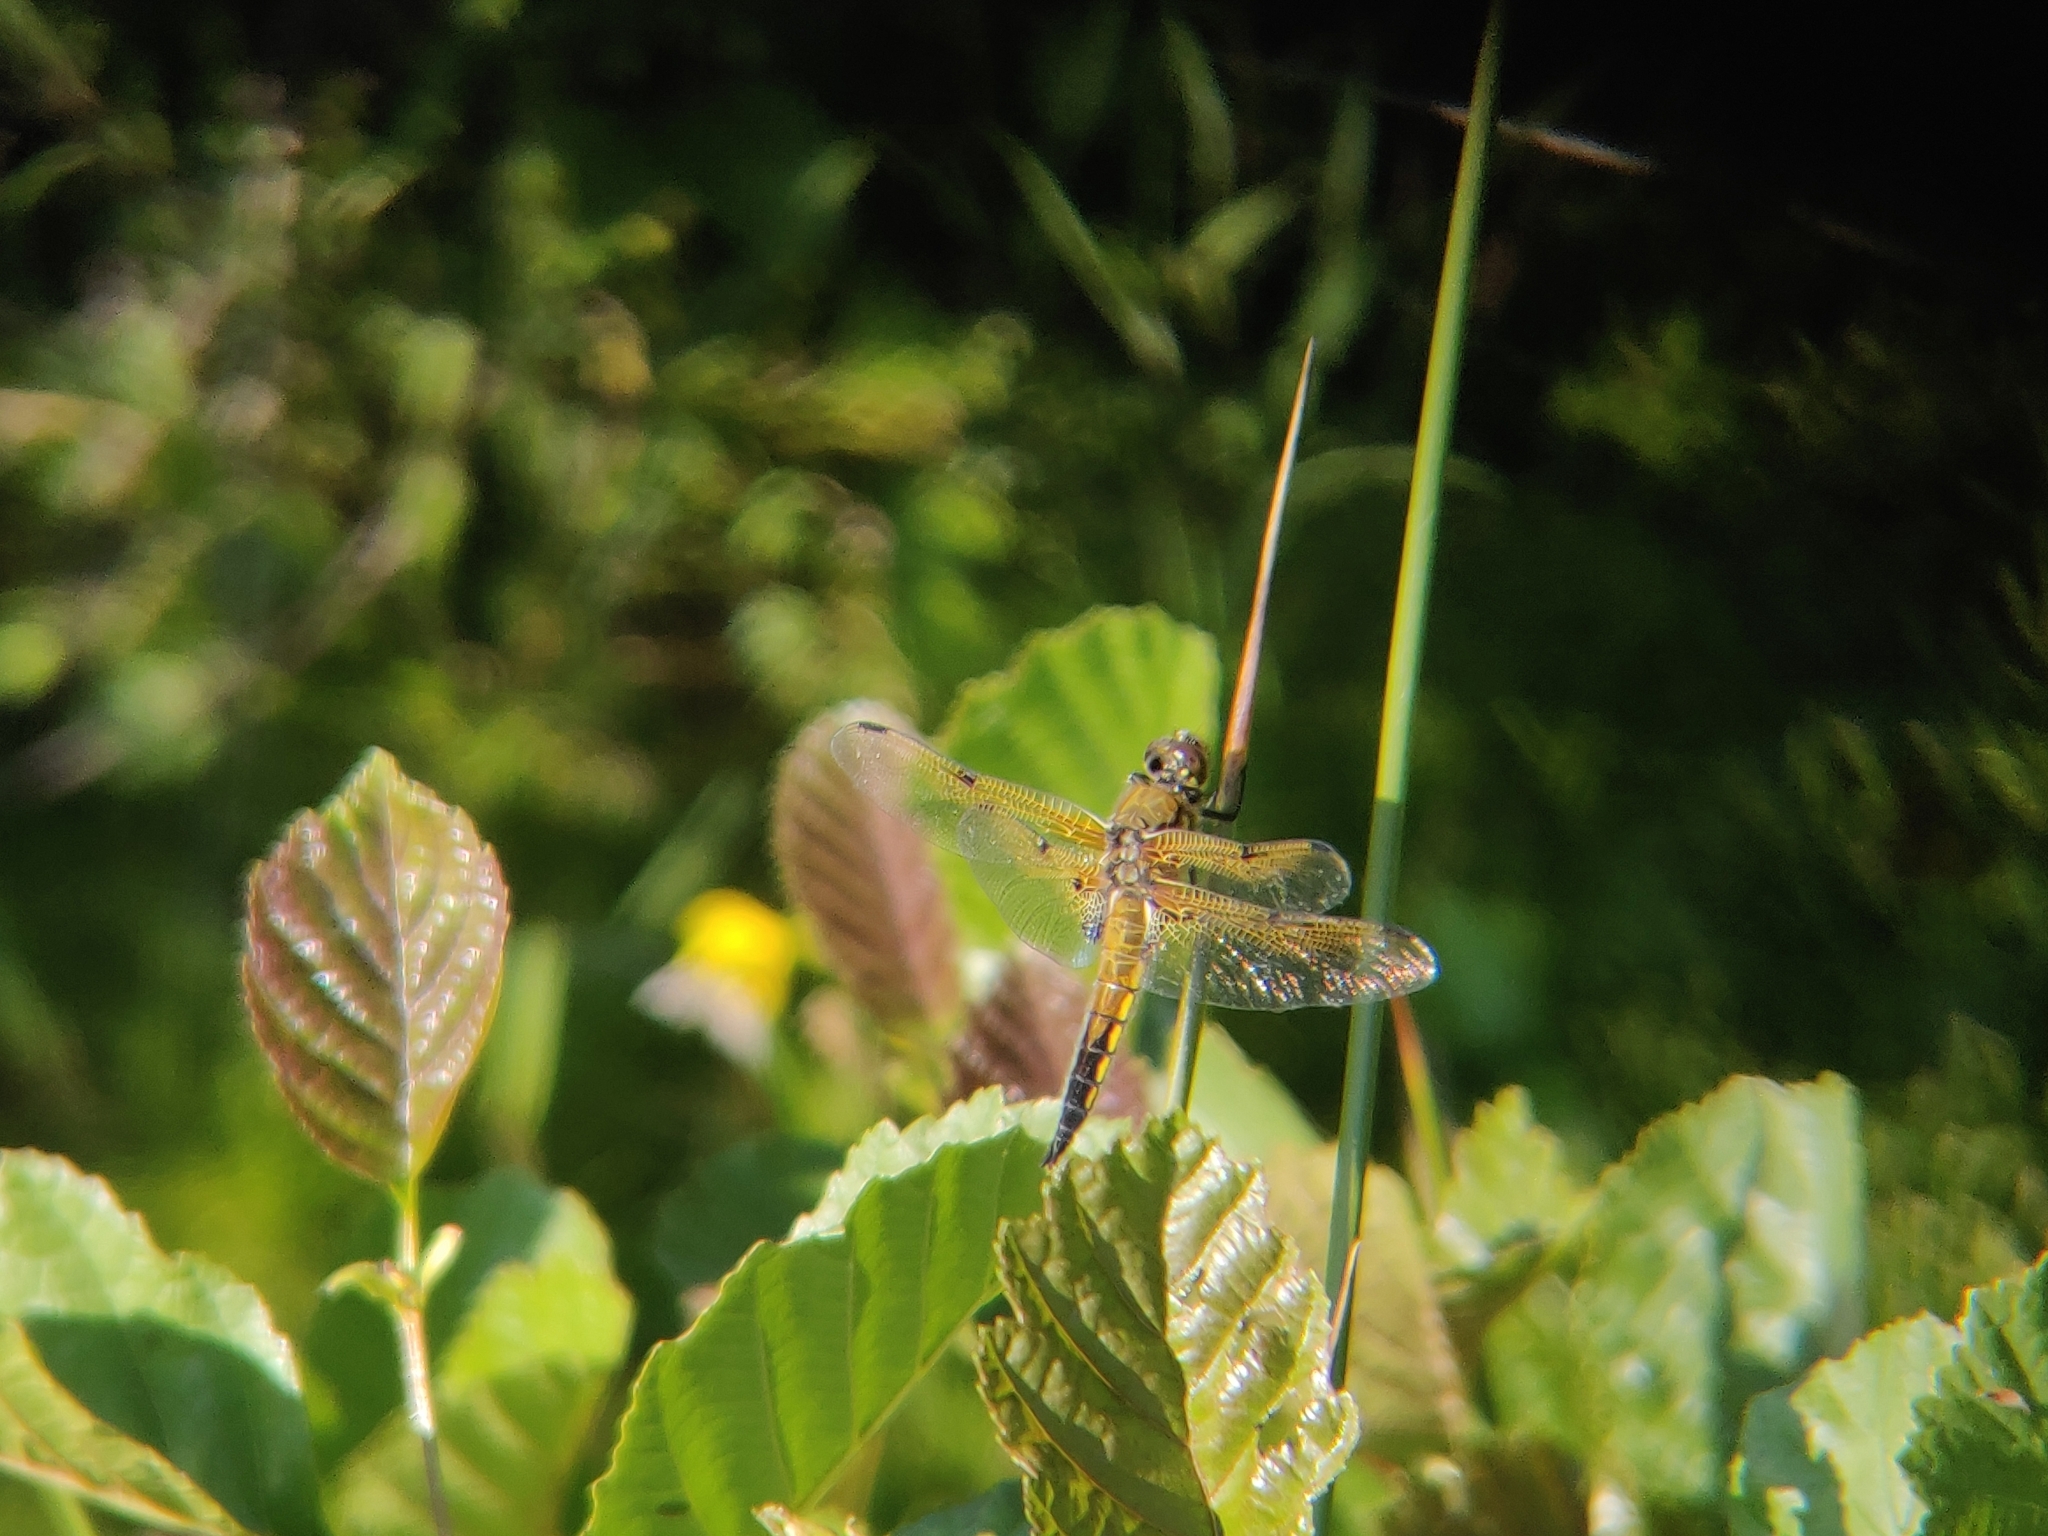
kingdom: Animalia
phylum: Arthropoda
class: Insecta
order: Odonata
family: Libellulidae
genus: Libellula
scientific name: Libellula quadrimaculata
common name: Four-spotted chaser
